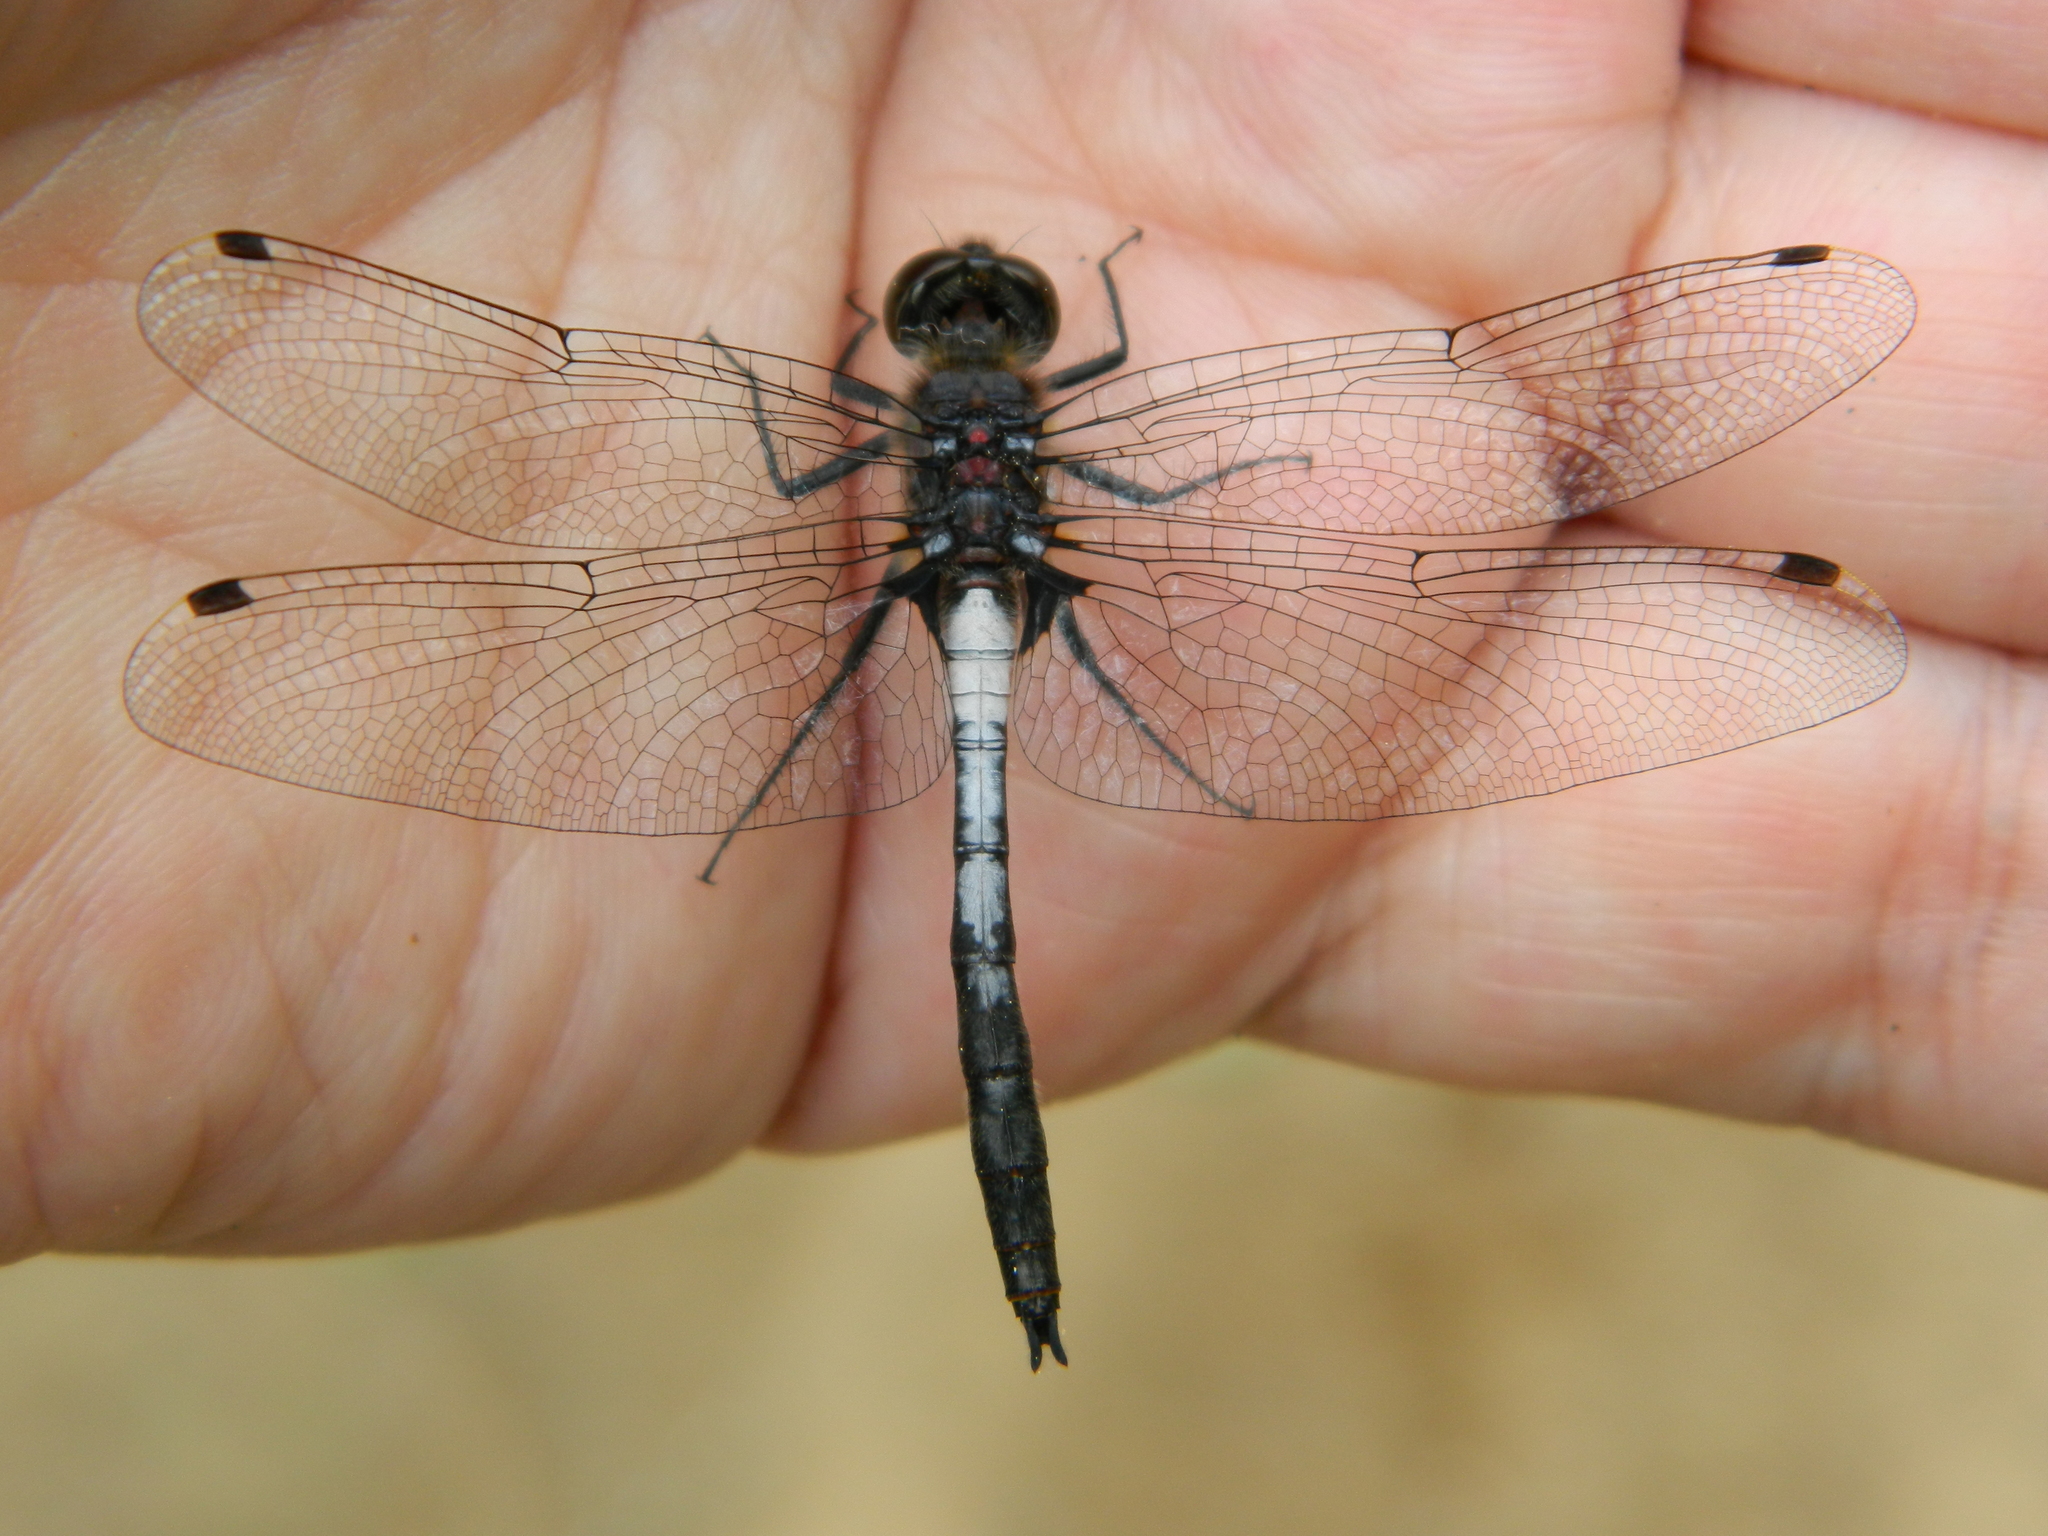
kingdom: Animalia
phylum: Arthropoda
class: Insecta
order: Odonata
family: Libellulidae
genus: Leucorrhinia
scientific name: Leucorrhinia proxima
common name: Belted whiteface
